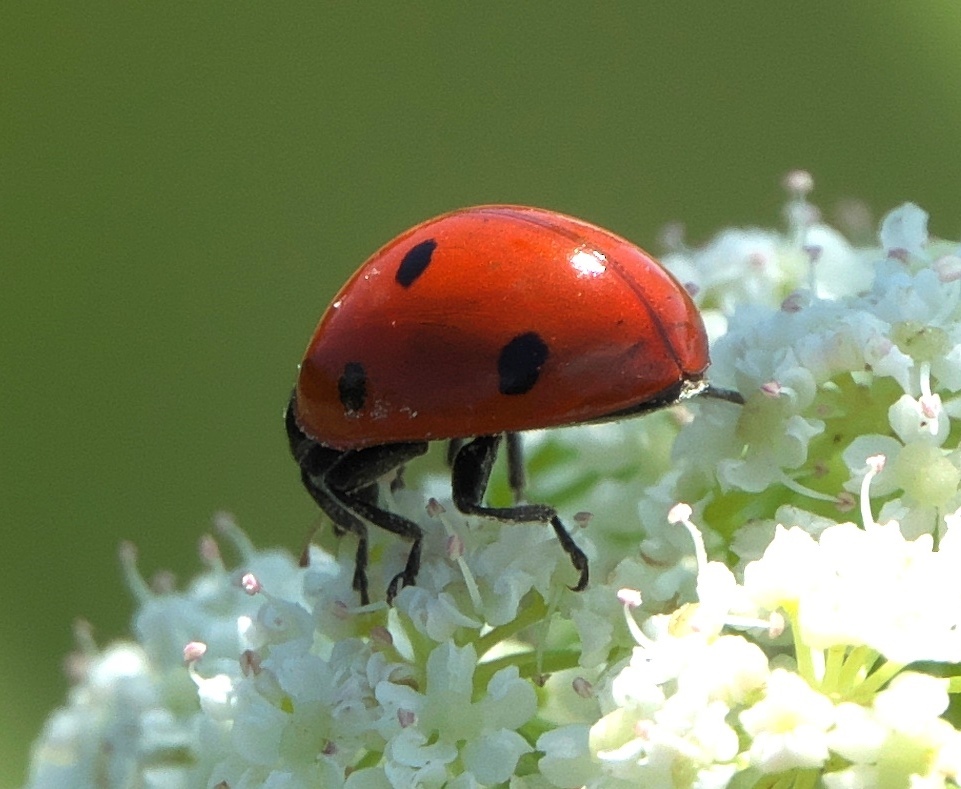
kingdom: Animalia
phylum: Arthropoda
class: Insecta
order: Coleoptera
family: Coccinellidae
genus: Coccinella
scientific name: Coccinella septempunctata
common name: Sevenspotted lady beetle
